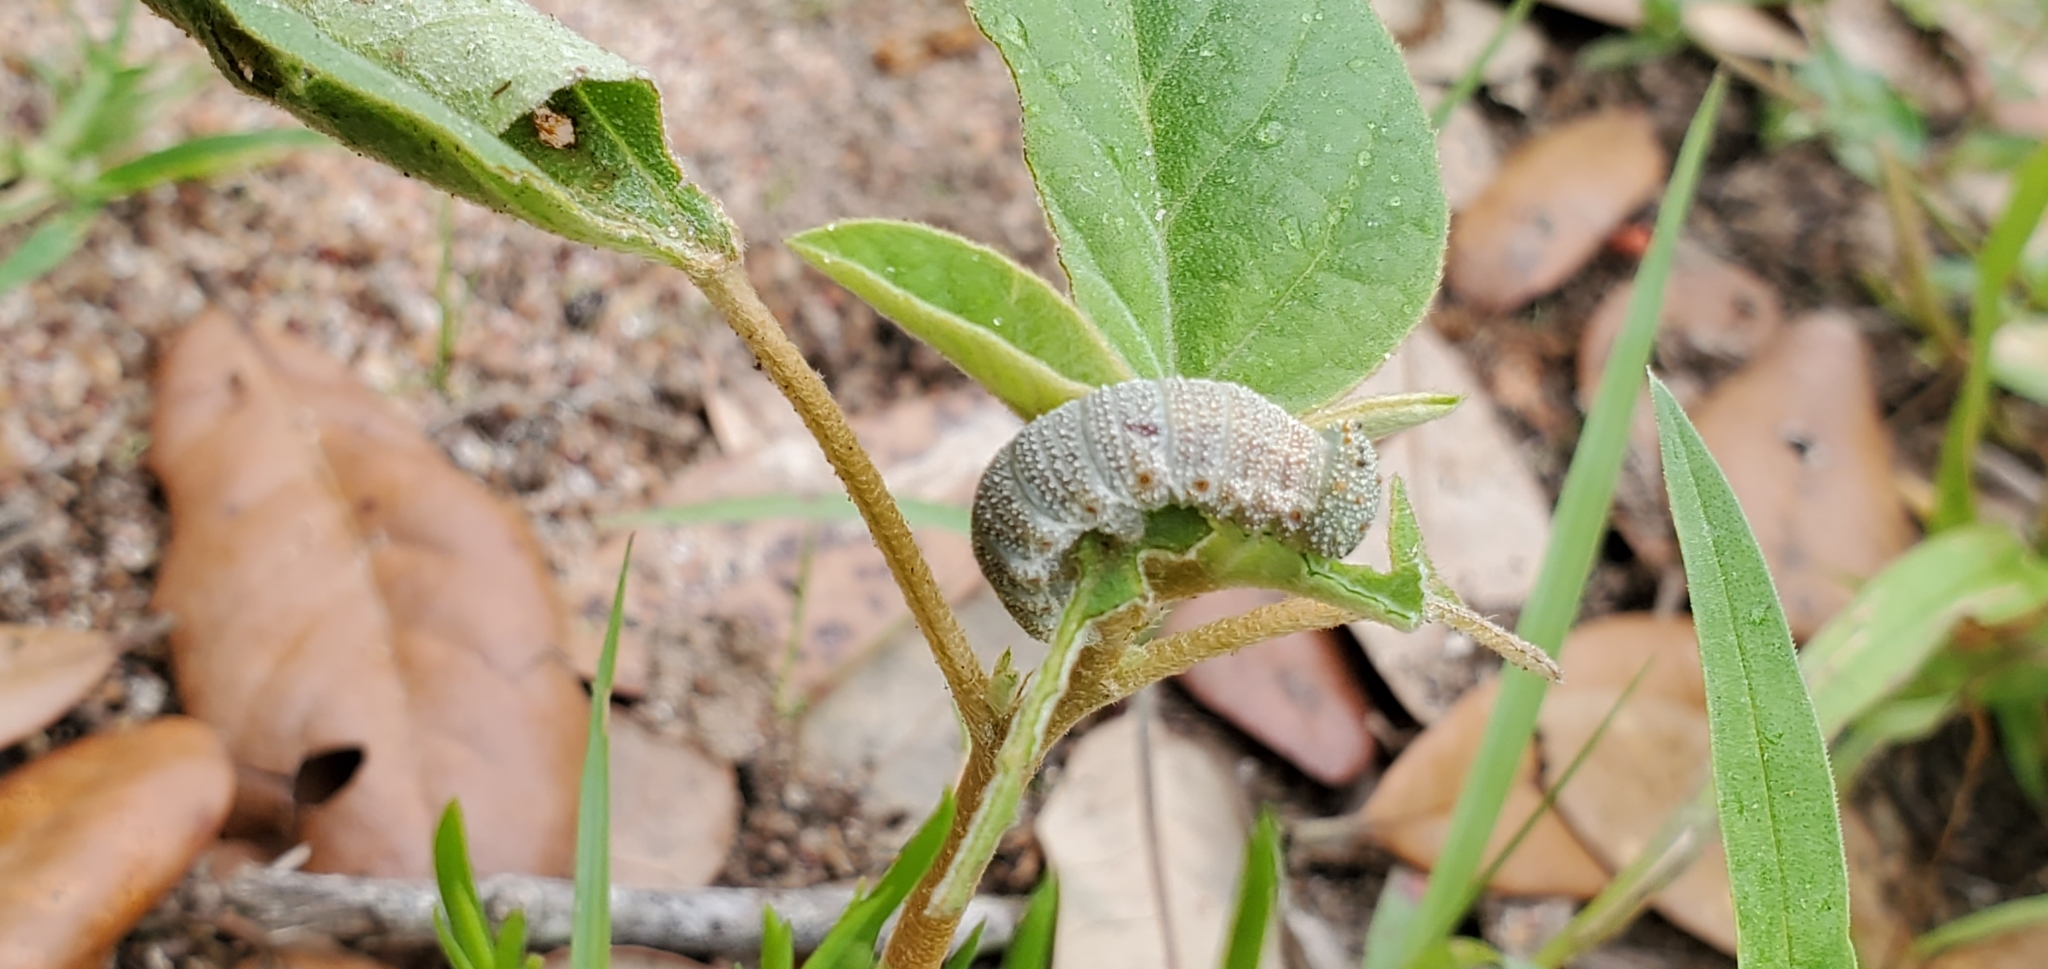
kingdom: Animalia
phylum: Arthropoda
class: Insecta
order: Lepidoptera
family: Nymphalidae
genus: Anaea
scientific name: Anaea andria
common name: Goatweed leafwing
